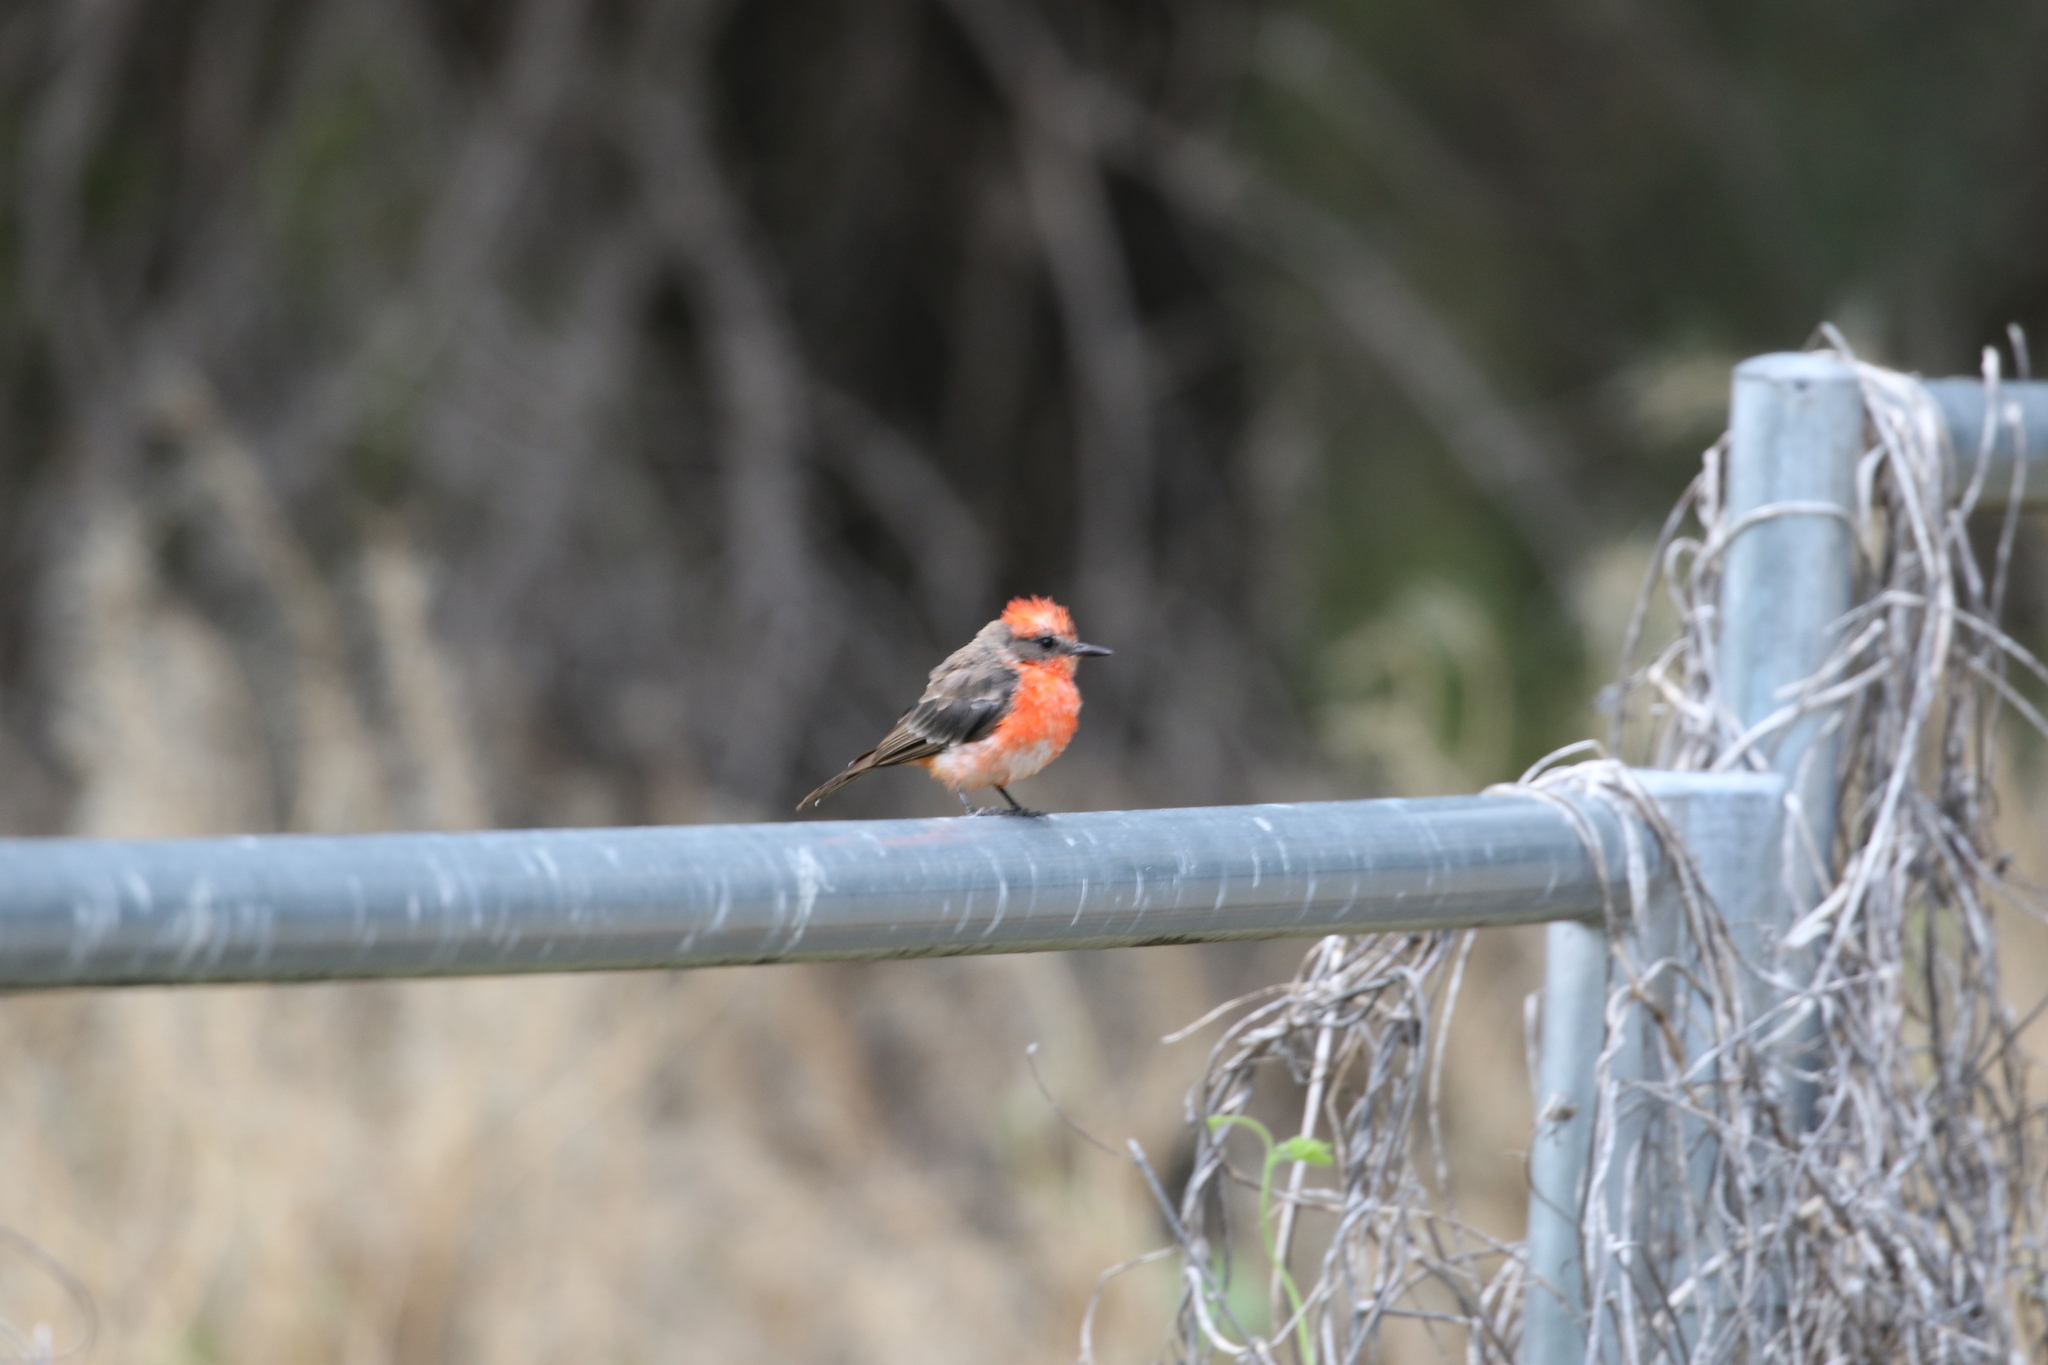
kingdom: Animalia
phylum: Chordata
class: Aves
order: Passeriformes
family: Tyrannidae
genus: Pyrocephalus
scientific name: Pyrocephalus rubinus
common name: Vermilion flycatcher
